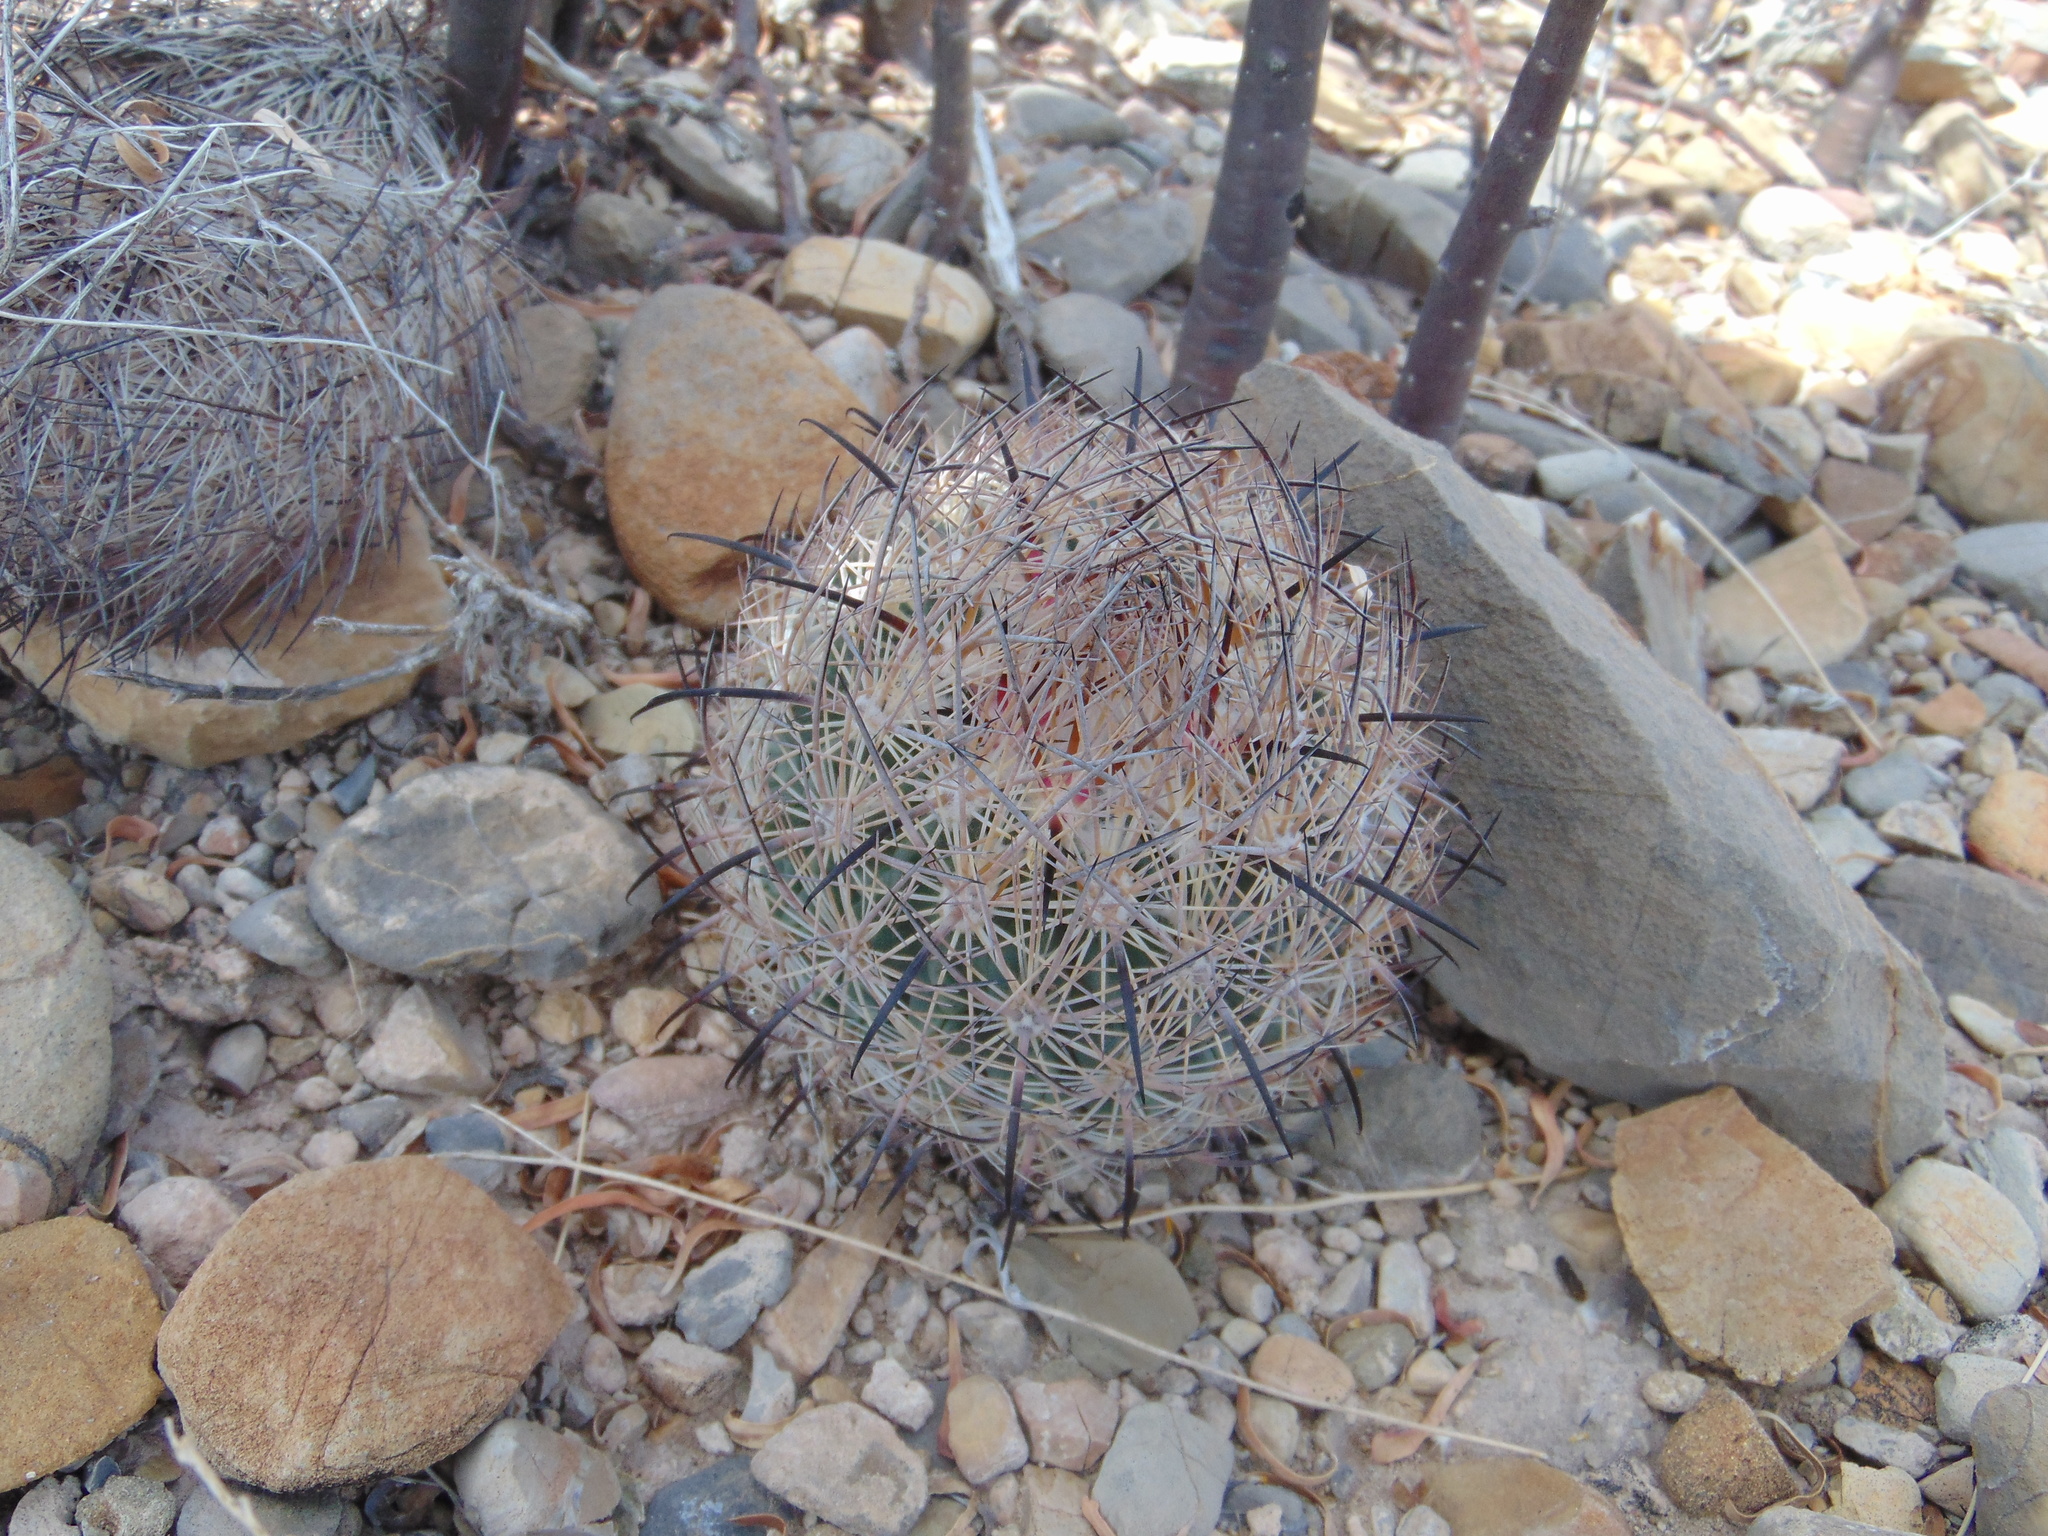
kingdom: Plantae
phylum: Tracheophyta
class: Magnoliopsida
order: Caryophyllales
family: Cactaceae
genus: Sclerocactus
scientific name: Sclerocactus unguispinus
